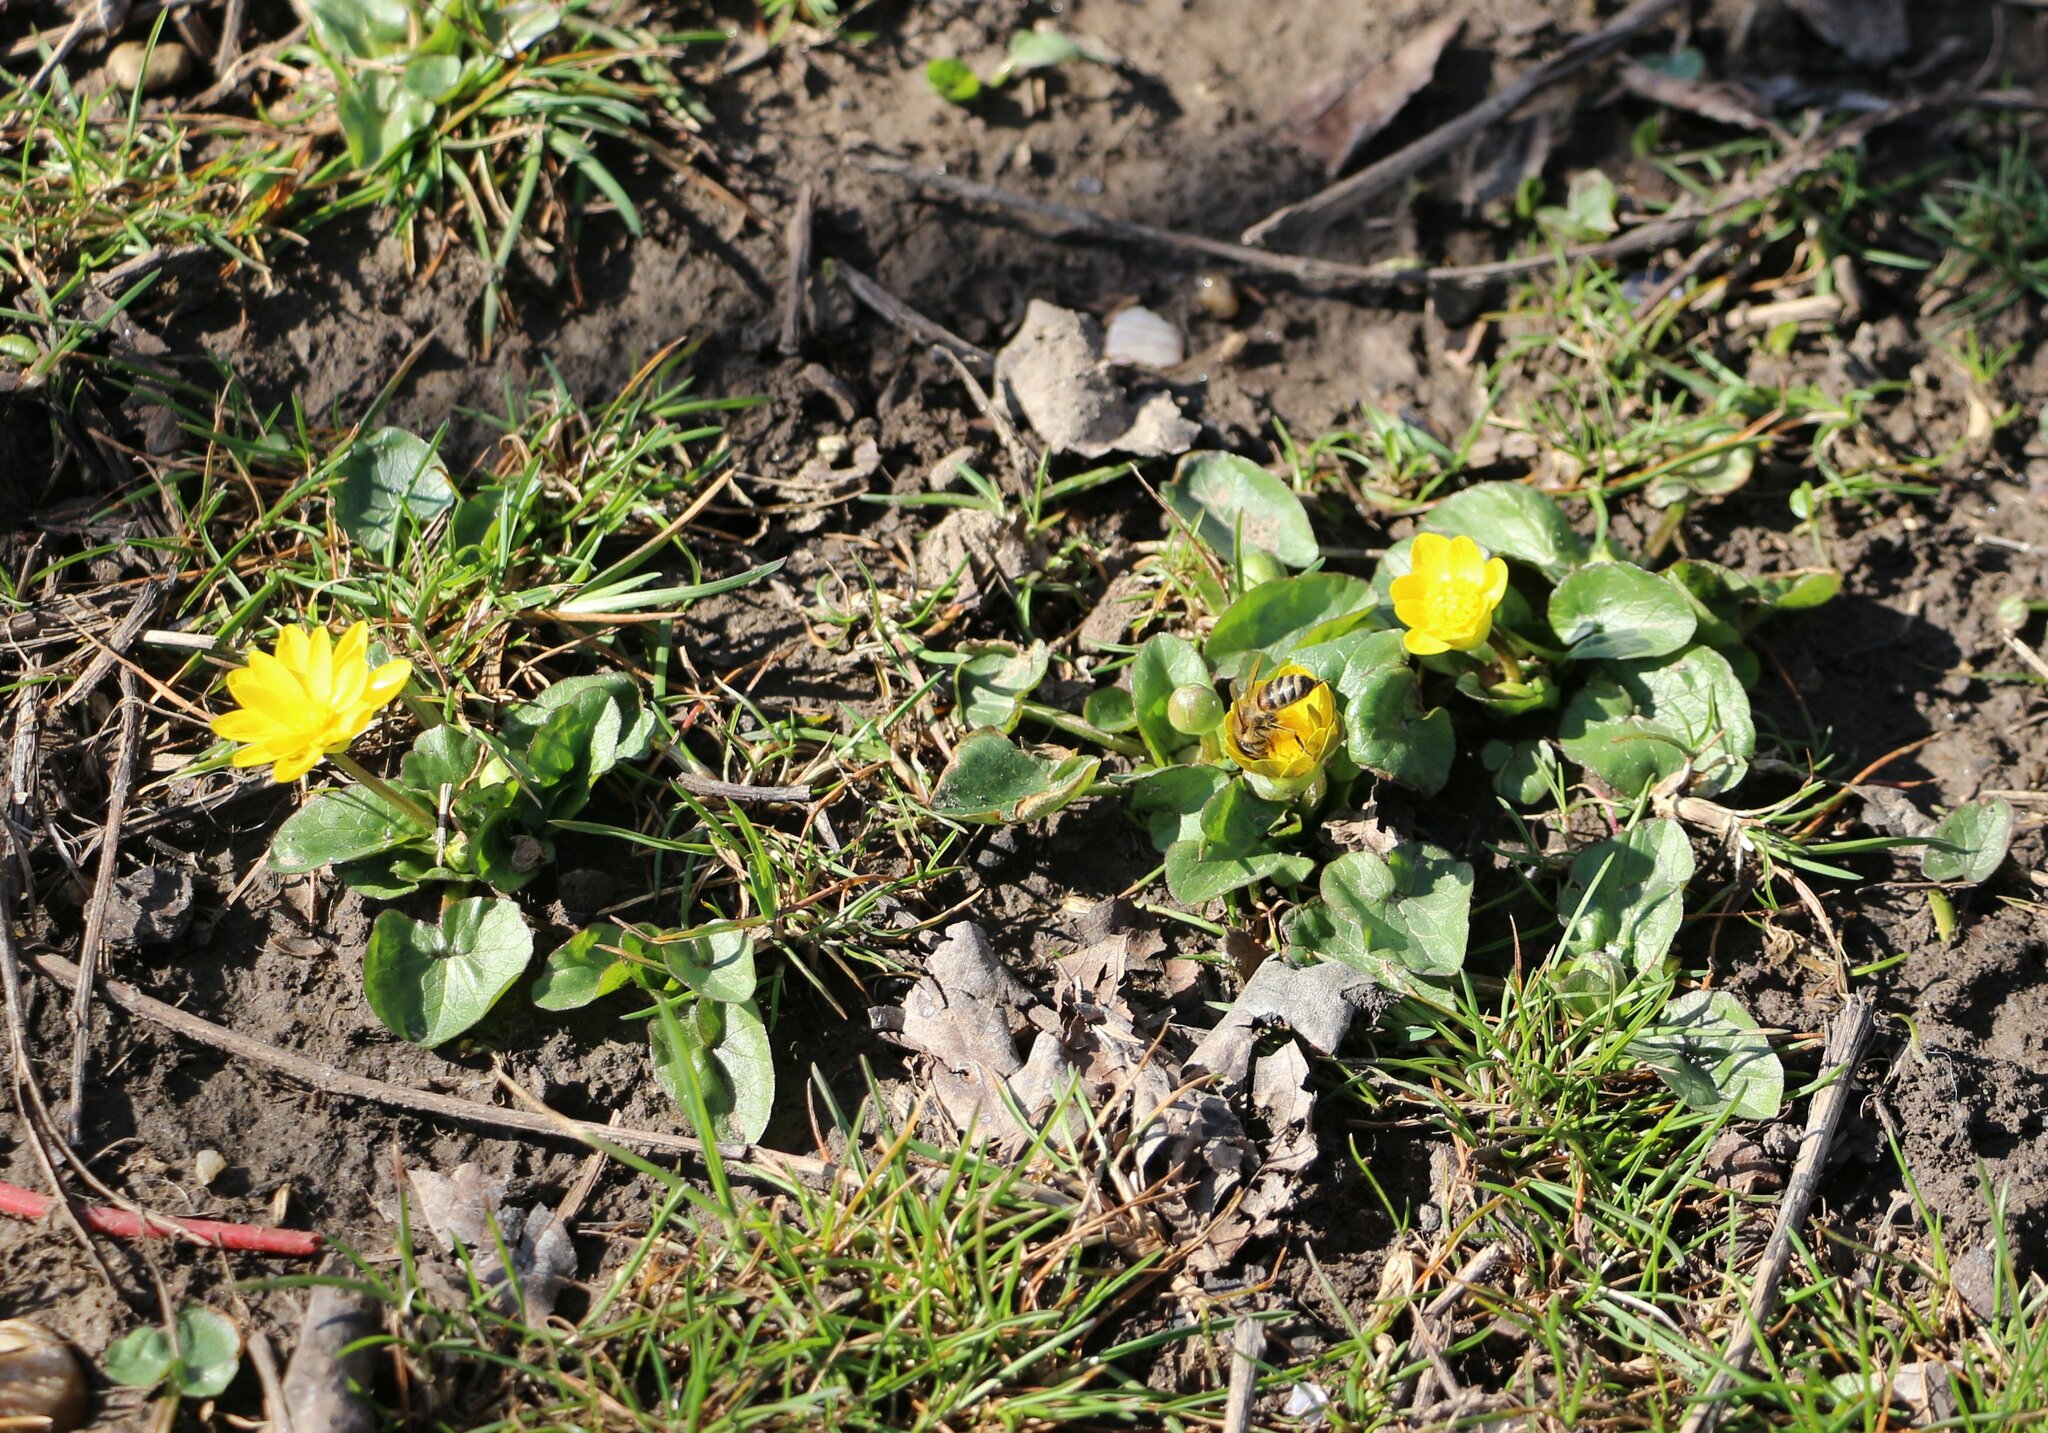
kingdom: Plantae
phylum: Tracheophyta
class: Magnoliopsida
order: Ranunculales
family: Ranunculaceae
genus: Ficaria
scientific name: Ficaria verna
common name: Lesser celandine
